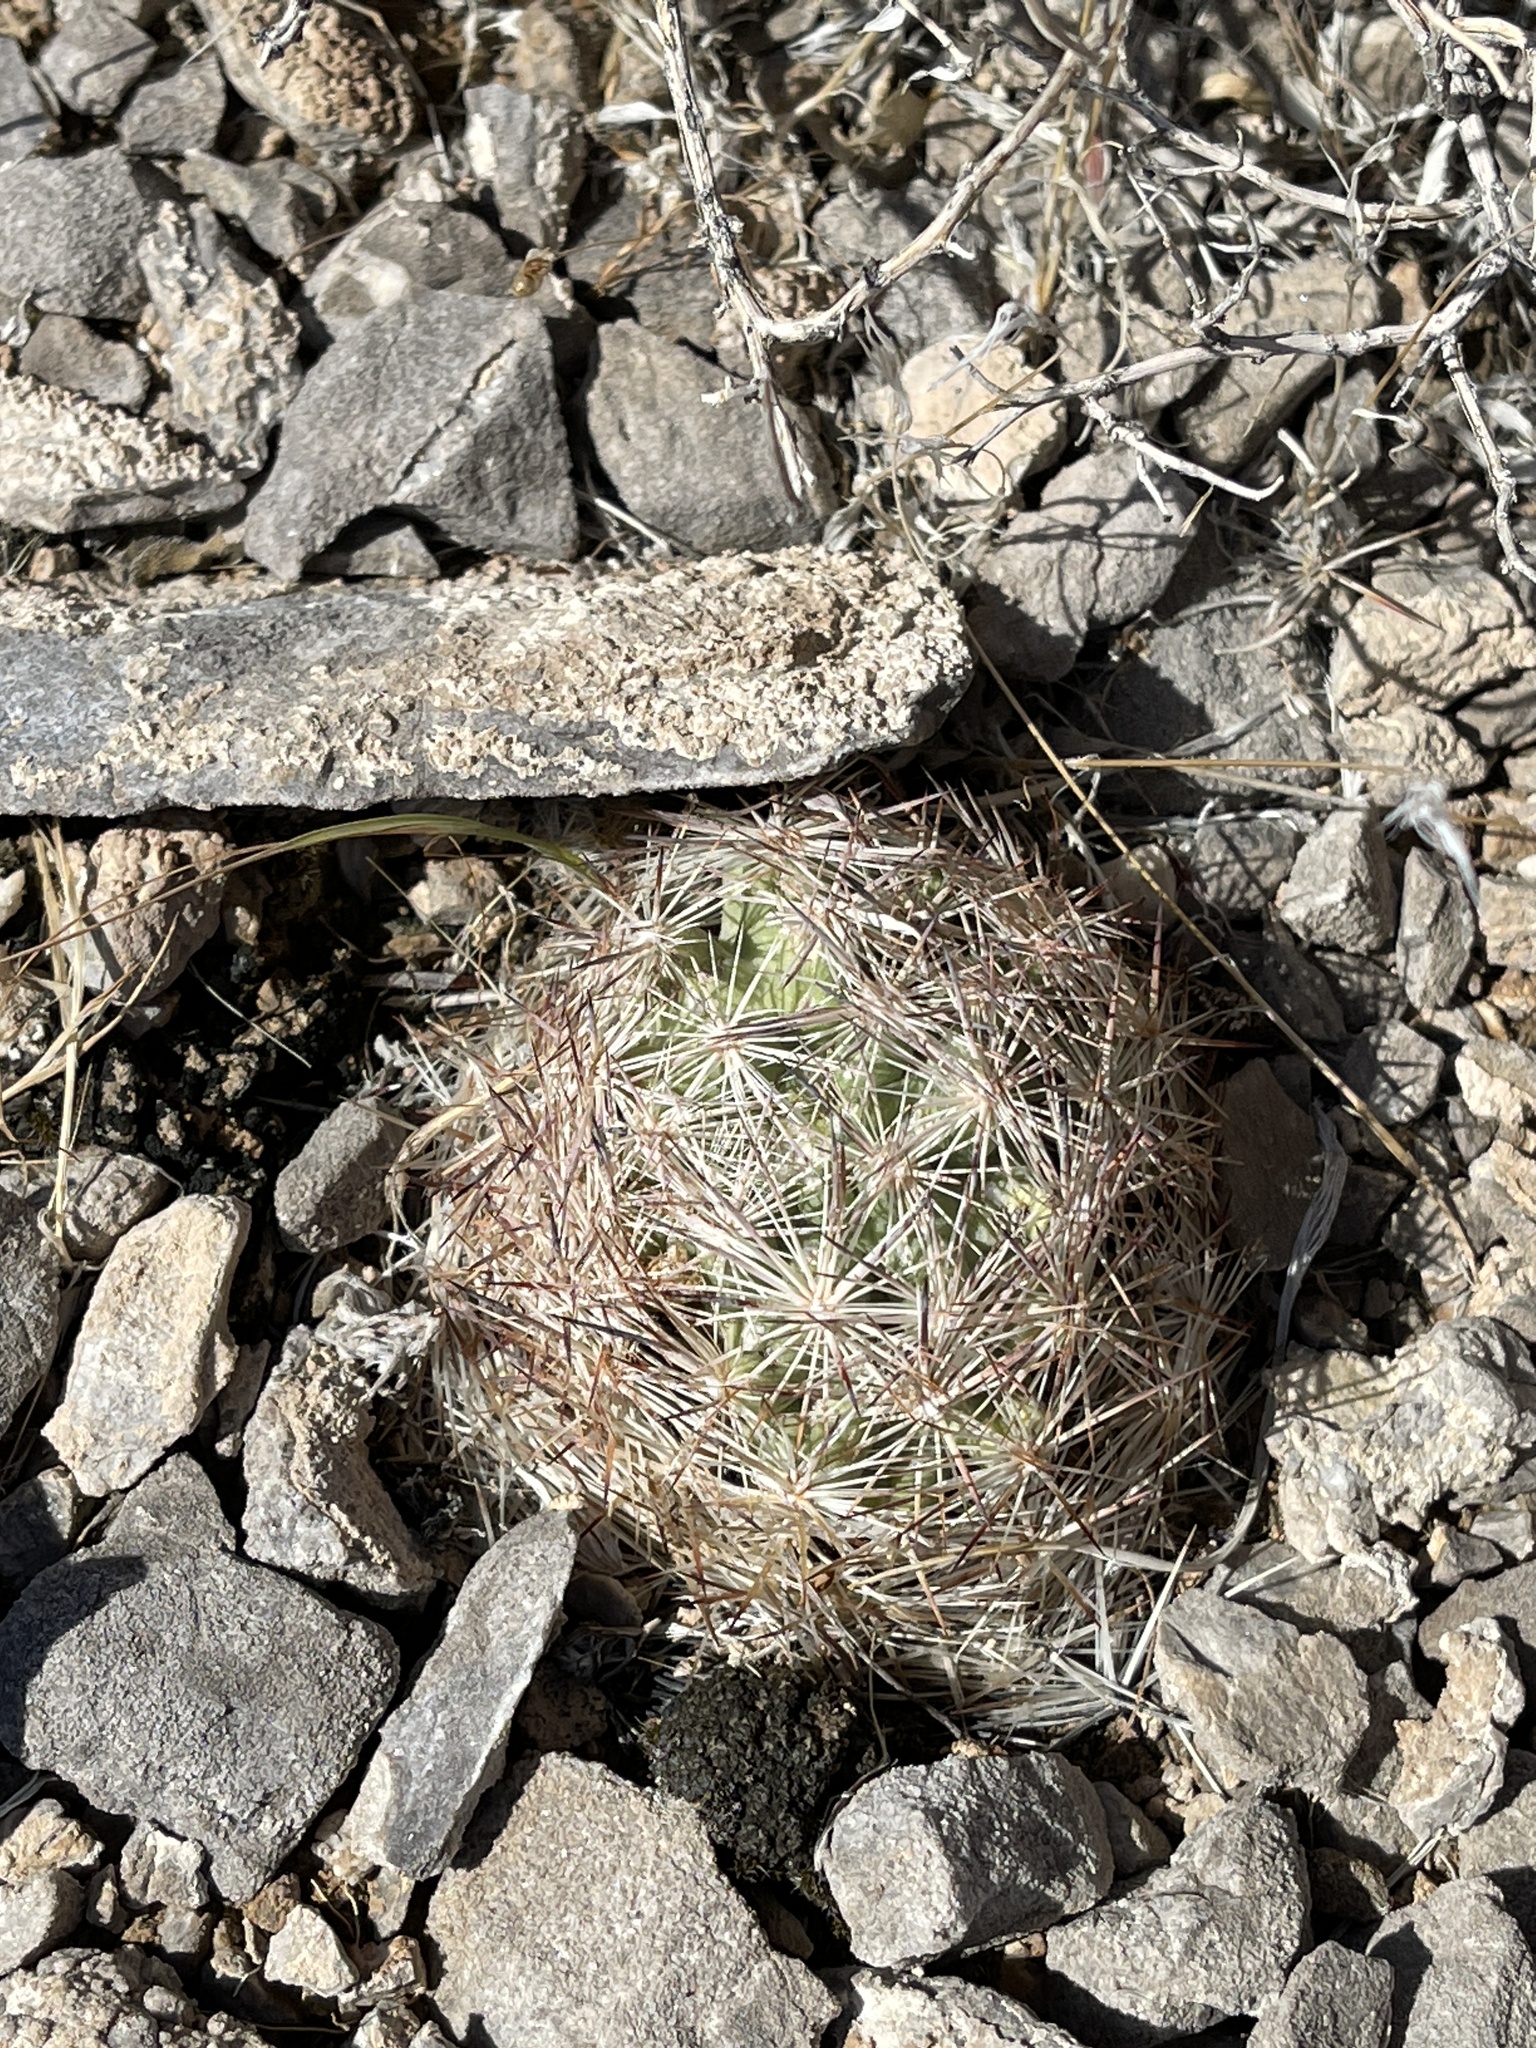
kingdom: Plantae
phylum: Tracheophyta
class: Magnoliopsida
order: Caryophyllales
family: Cactaceae
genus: Pelecyphora
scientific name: Pelecyphora dasyacantha
